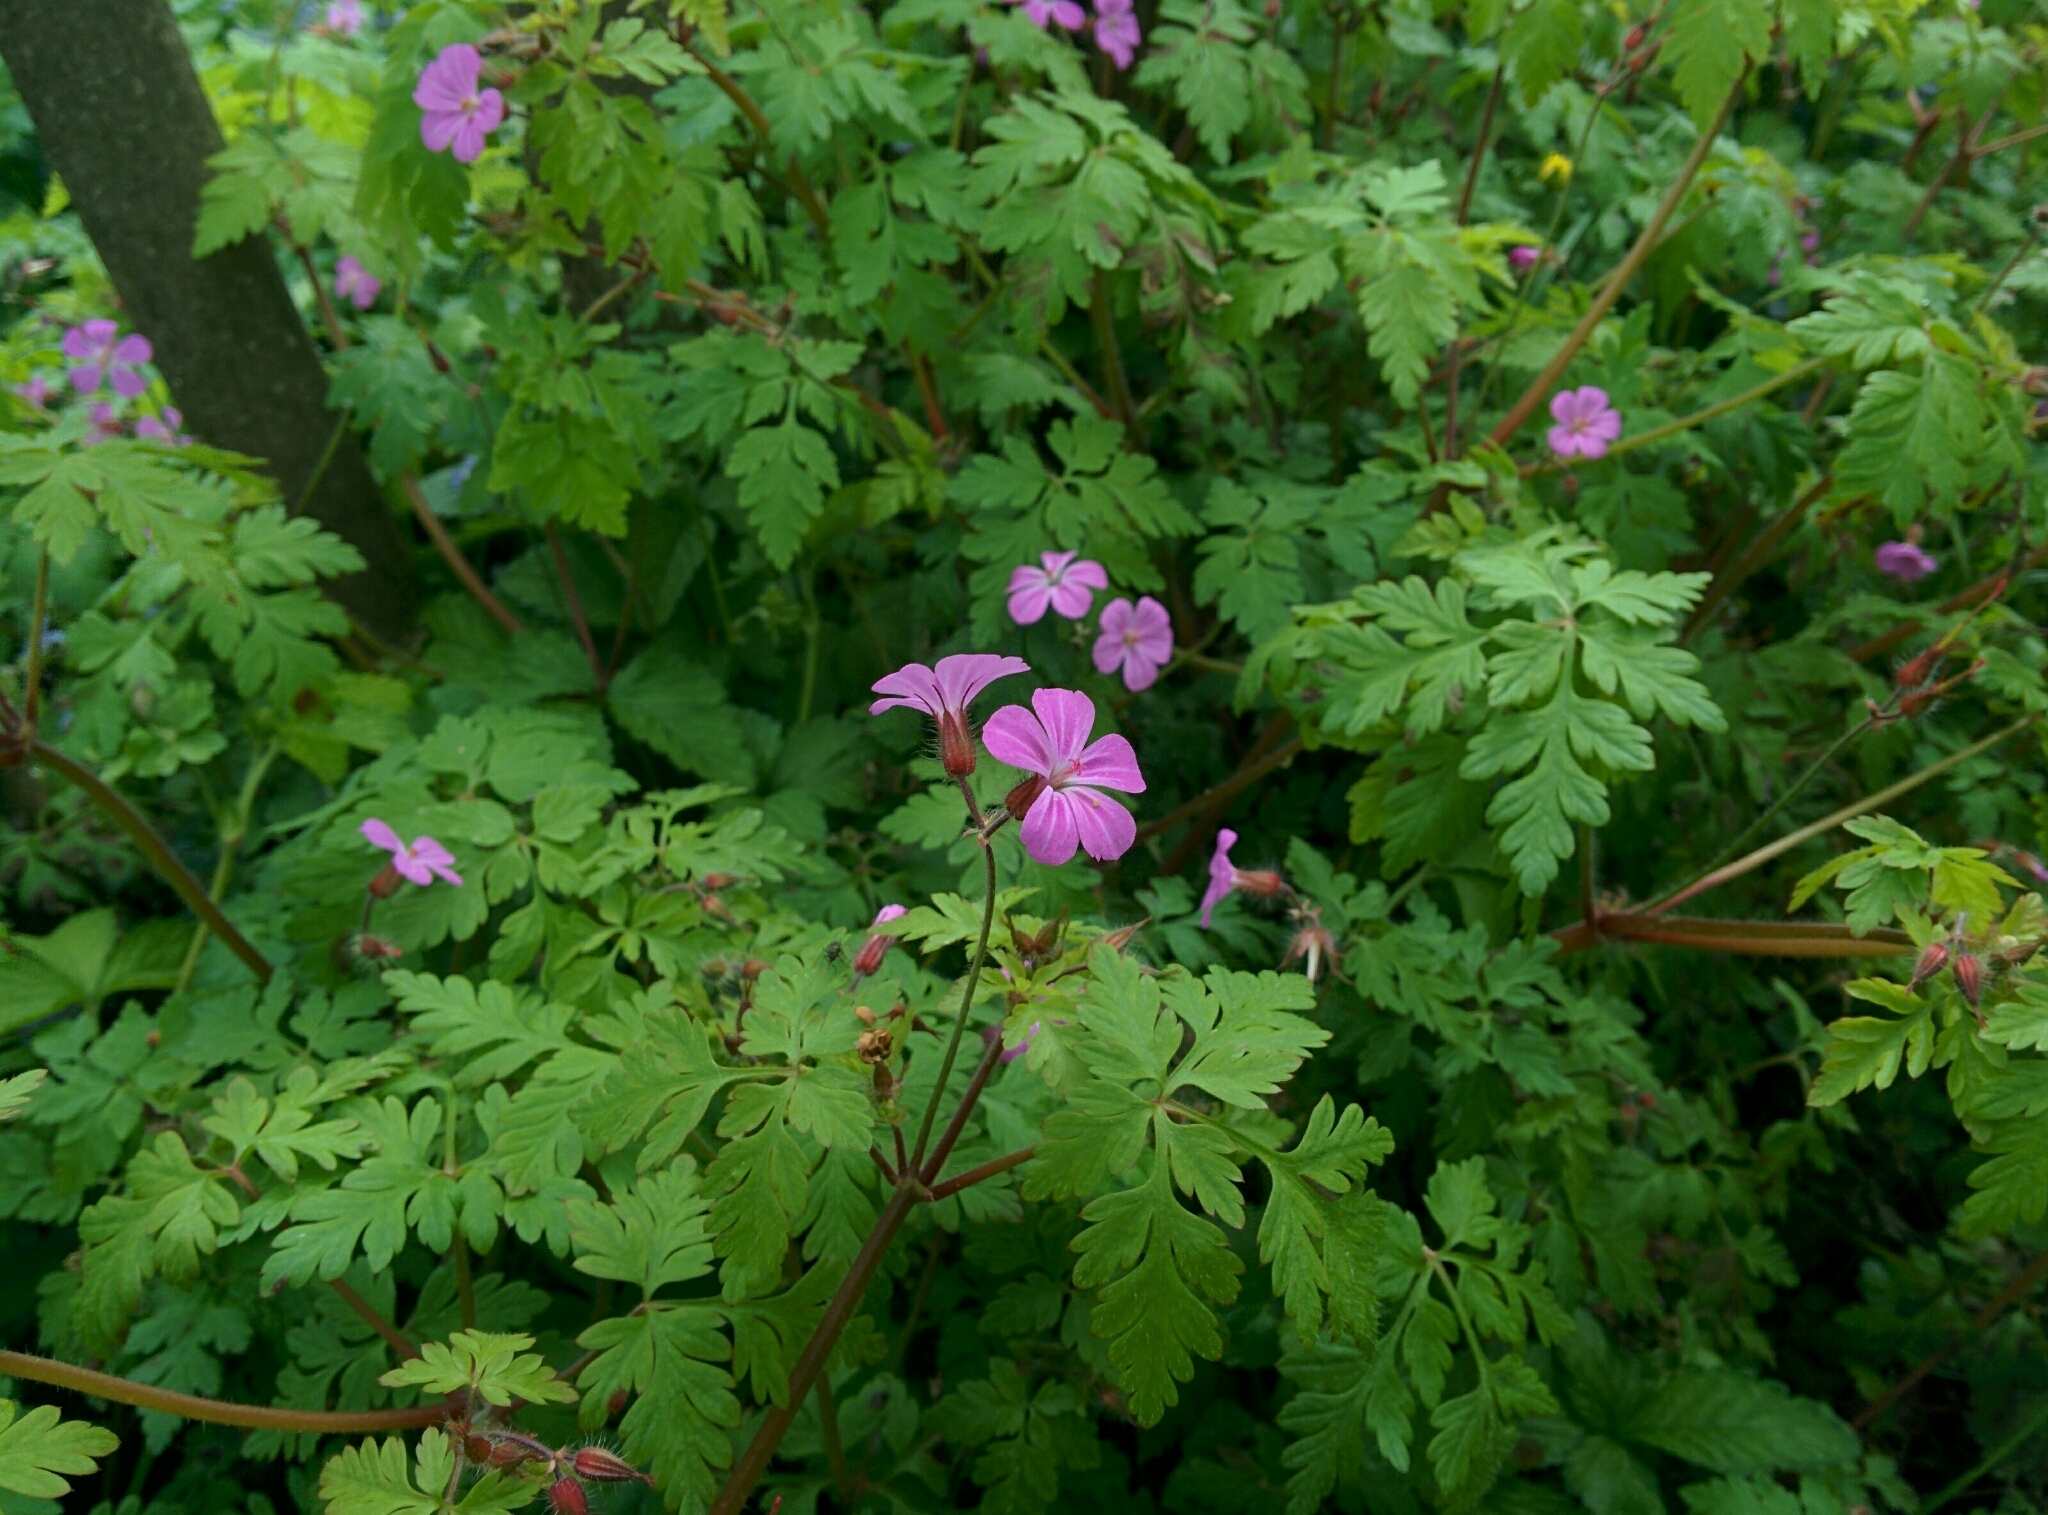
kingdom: Plantae
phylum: Tracheophyta
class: Magnoliopsida
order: Geraniales
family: Geraniaceae
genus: Geranium
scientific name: Geranium robertianum
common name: Herb-robert
